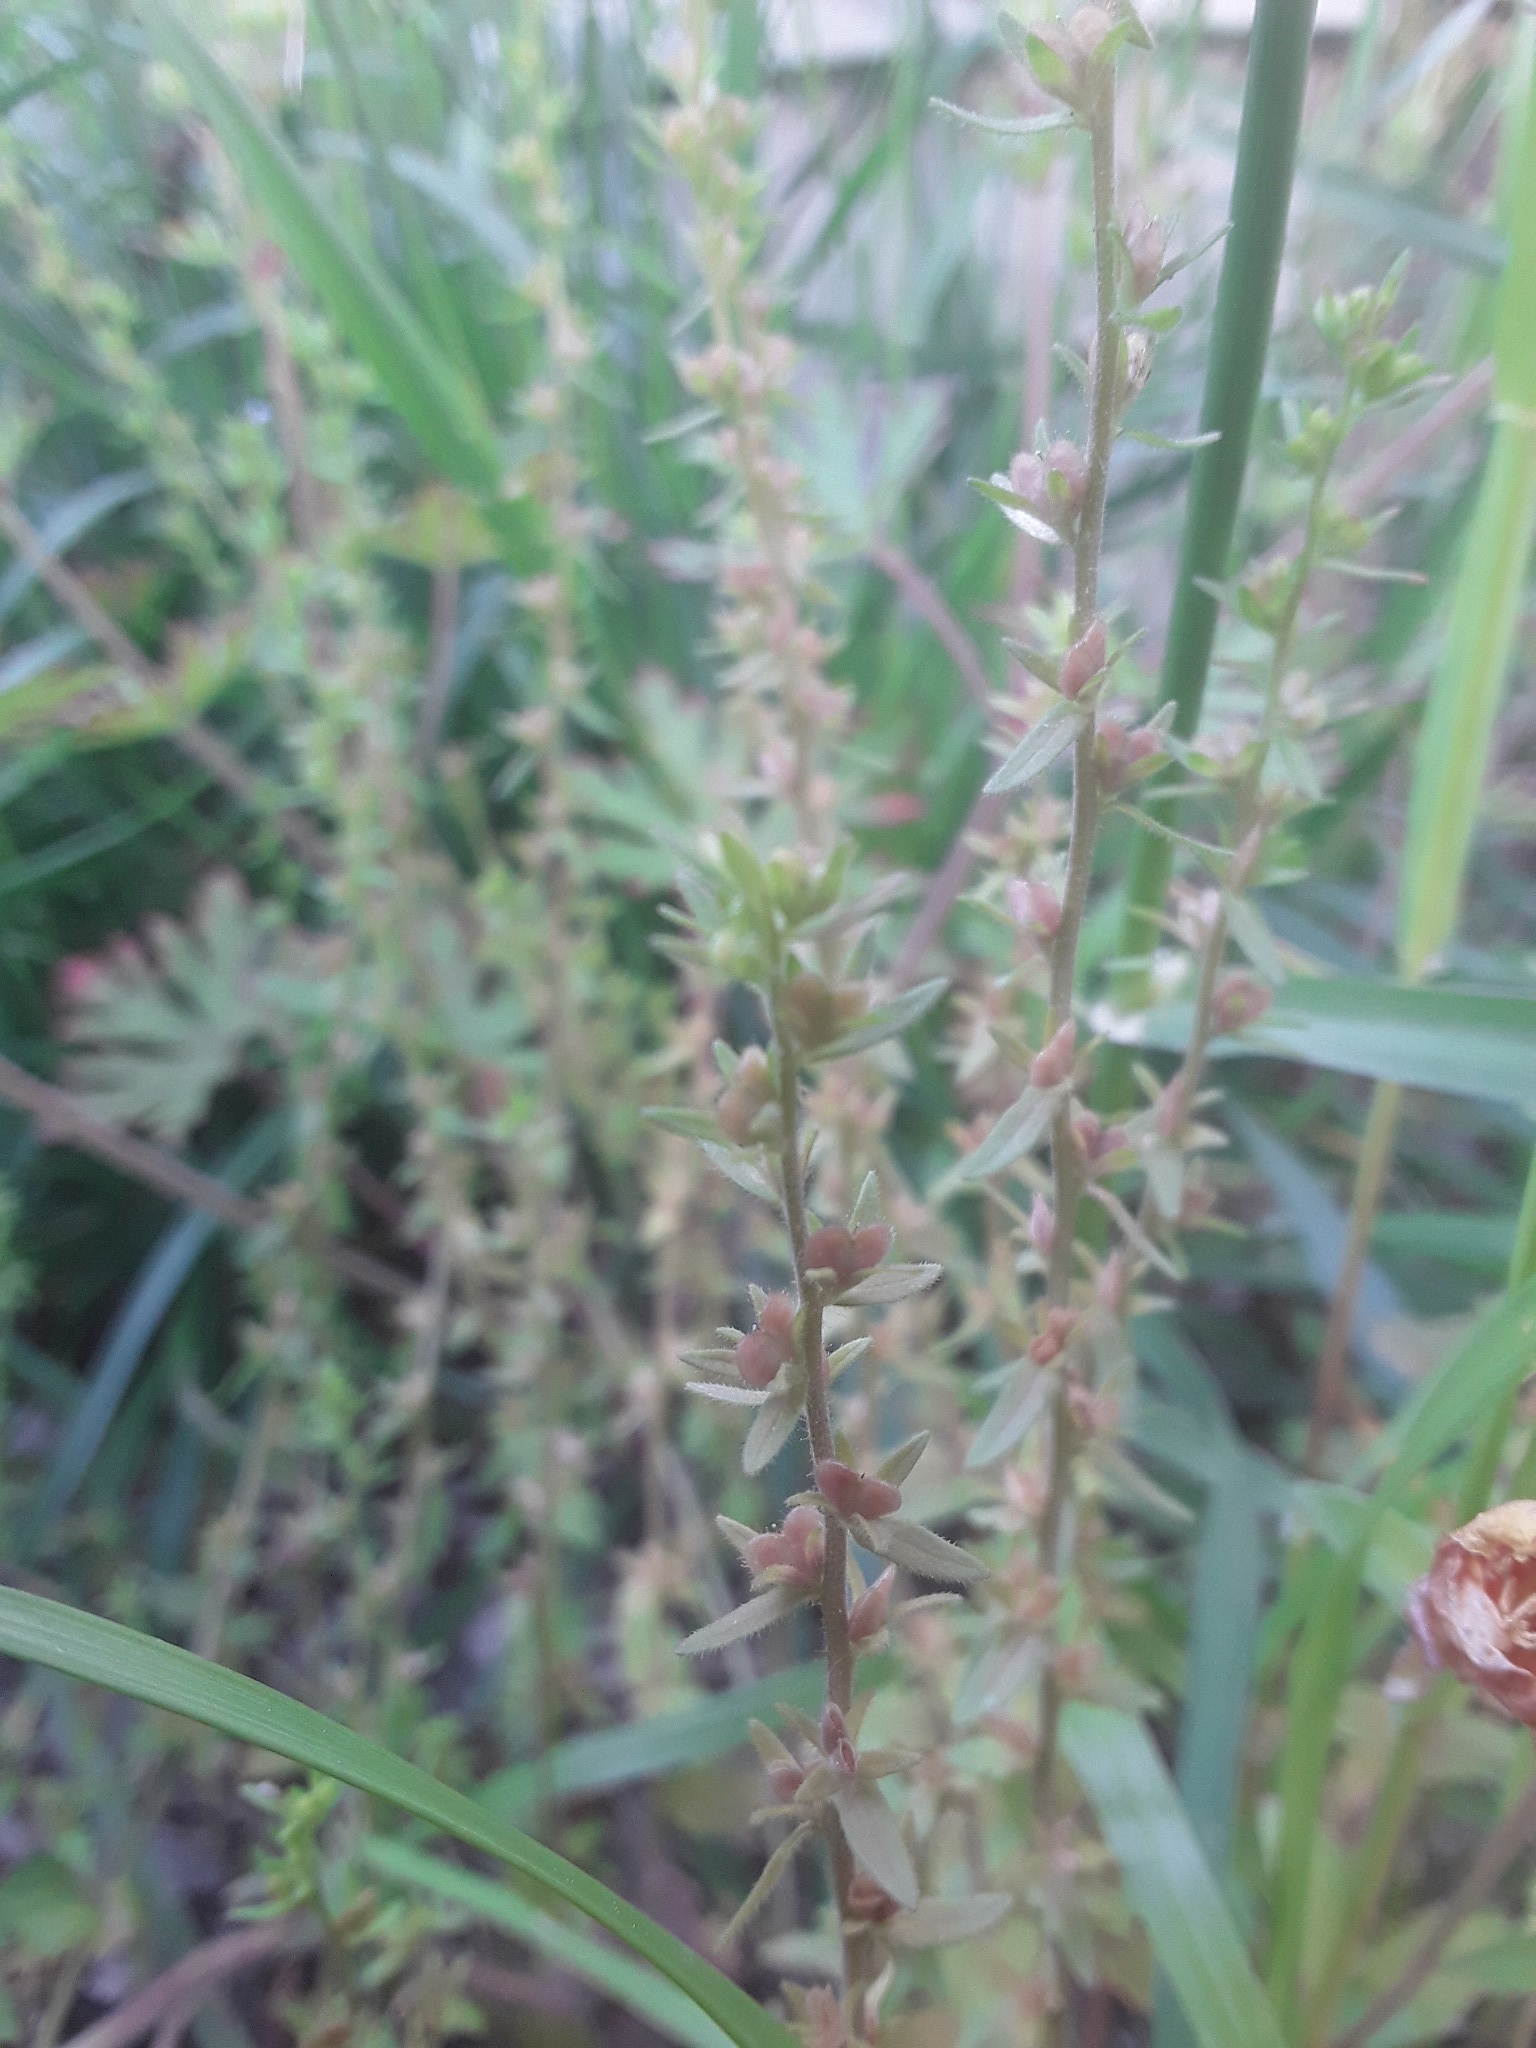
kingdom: Plantae
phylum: Tracheophyta
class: Magnoliopsida
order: Lamiales
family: Plantaginaceae
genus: Veronica
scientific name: Veronica arvensis
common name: Corn speedwell
